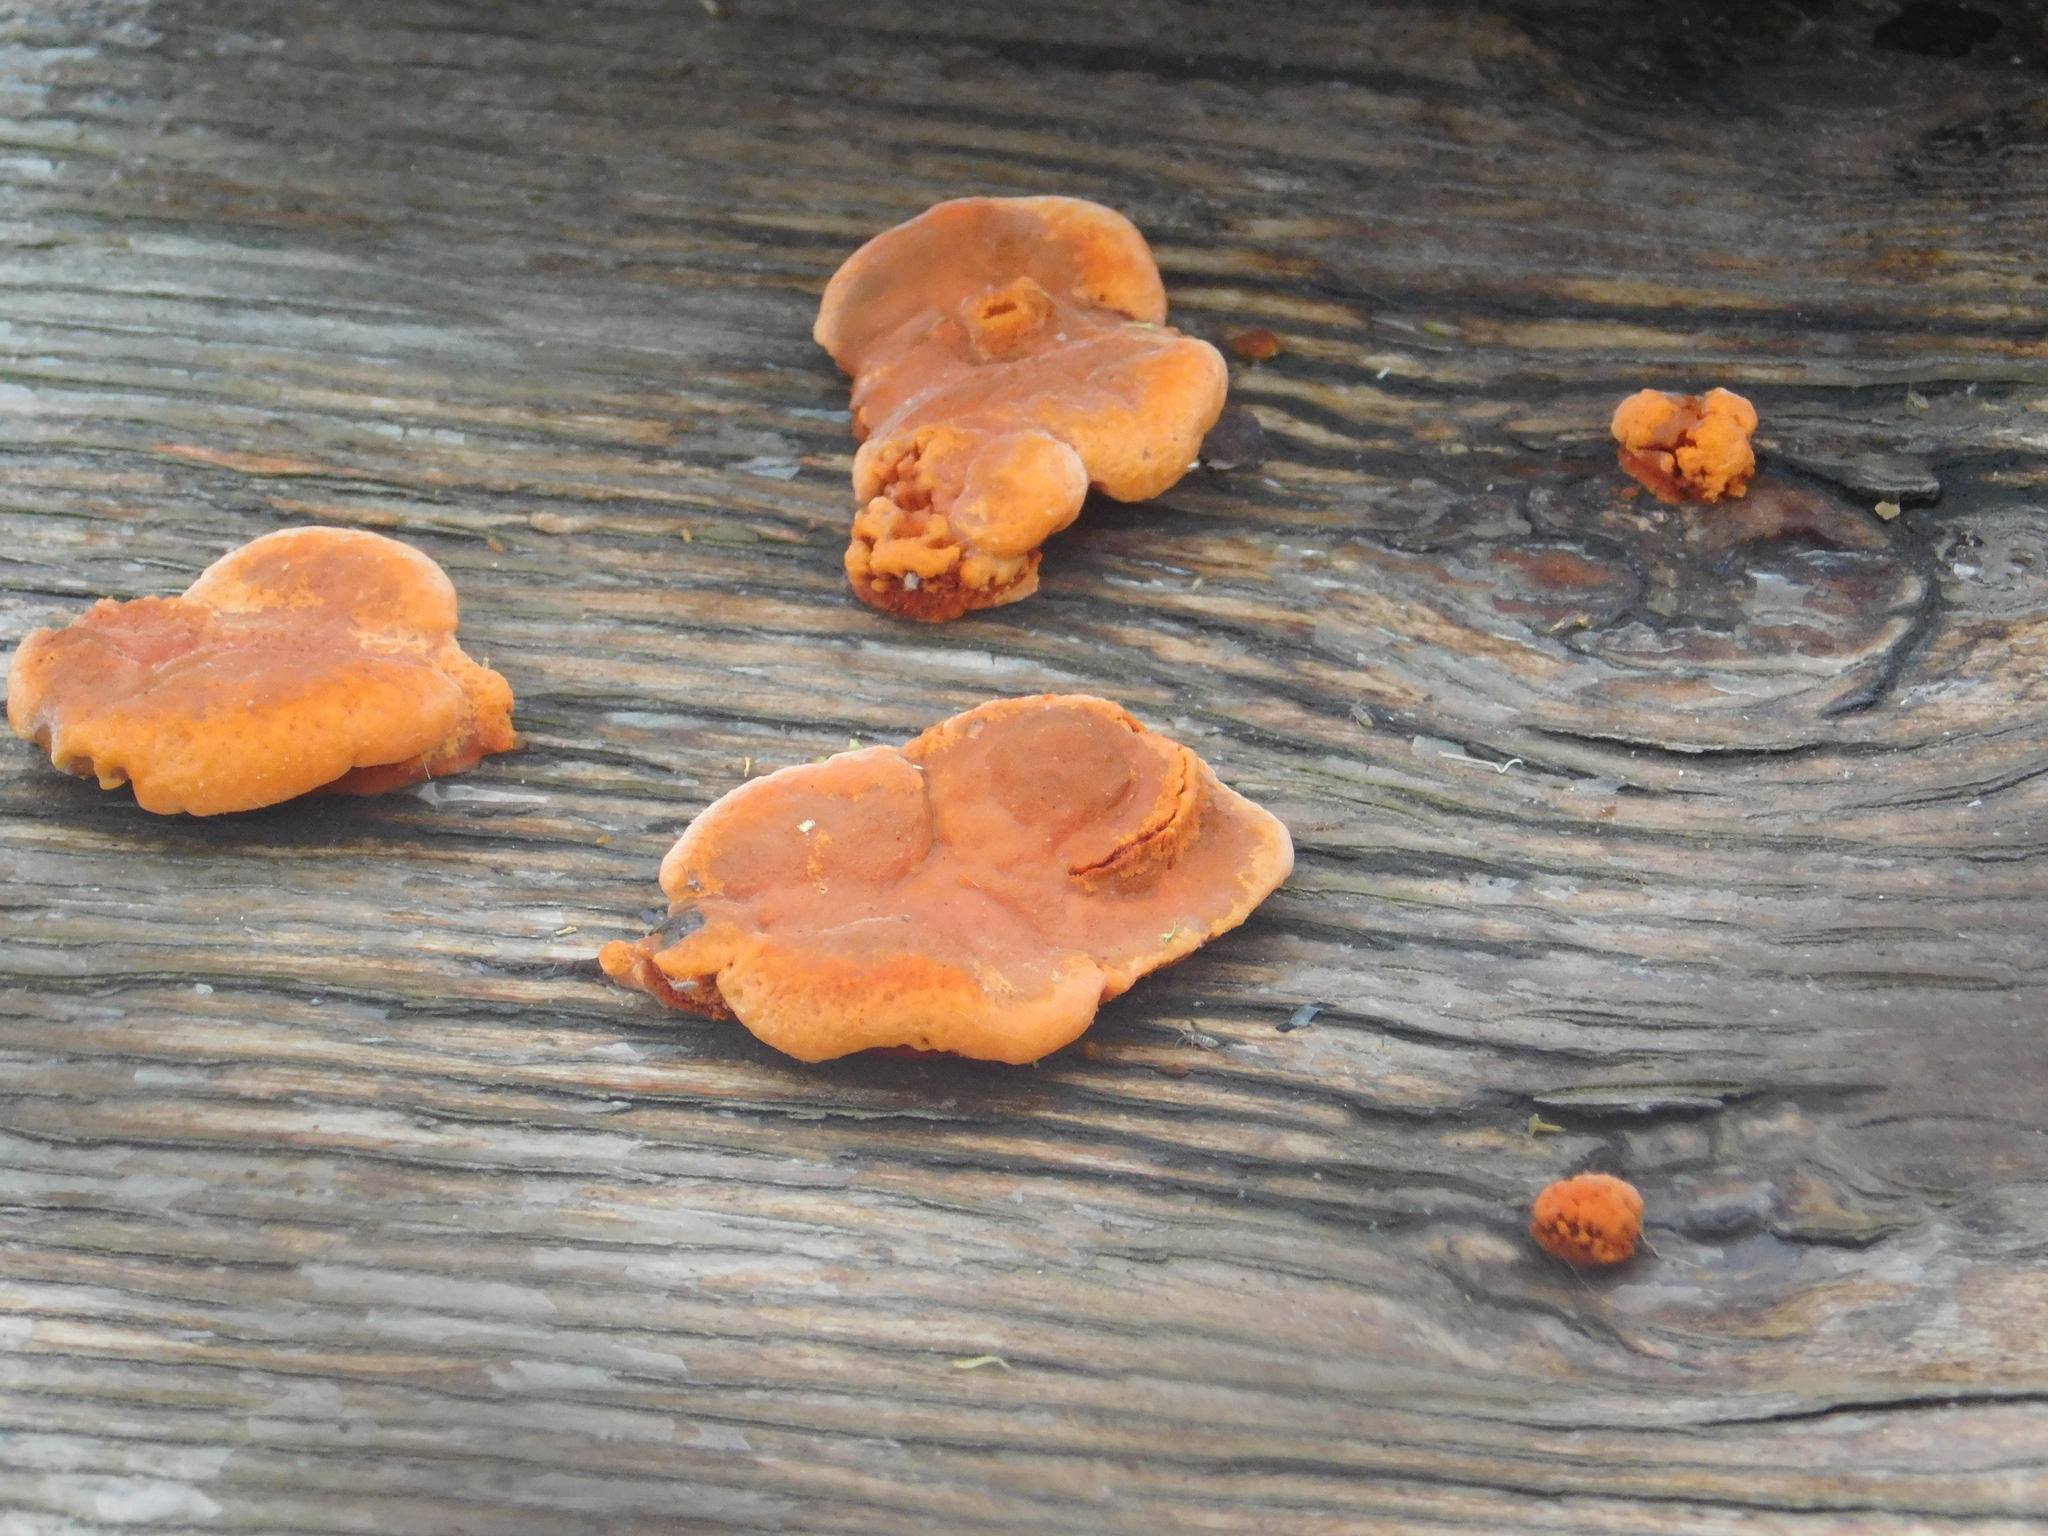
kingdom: Fungi
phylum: Basidiomycota
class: Agaricomycetes
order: Polyporales
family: Polyporaceae
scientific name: Polyporaceae
